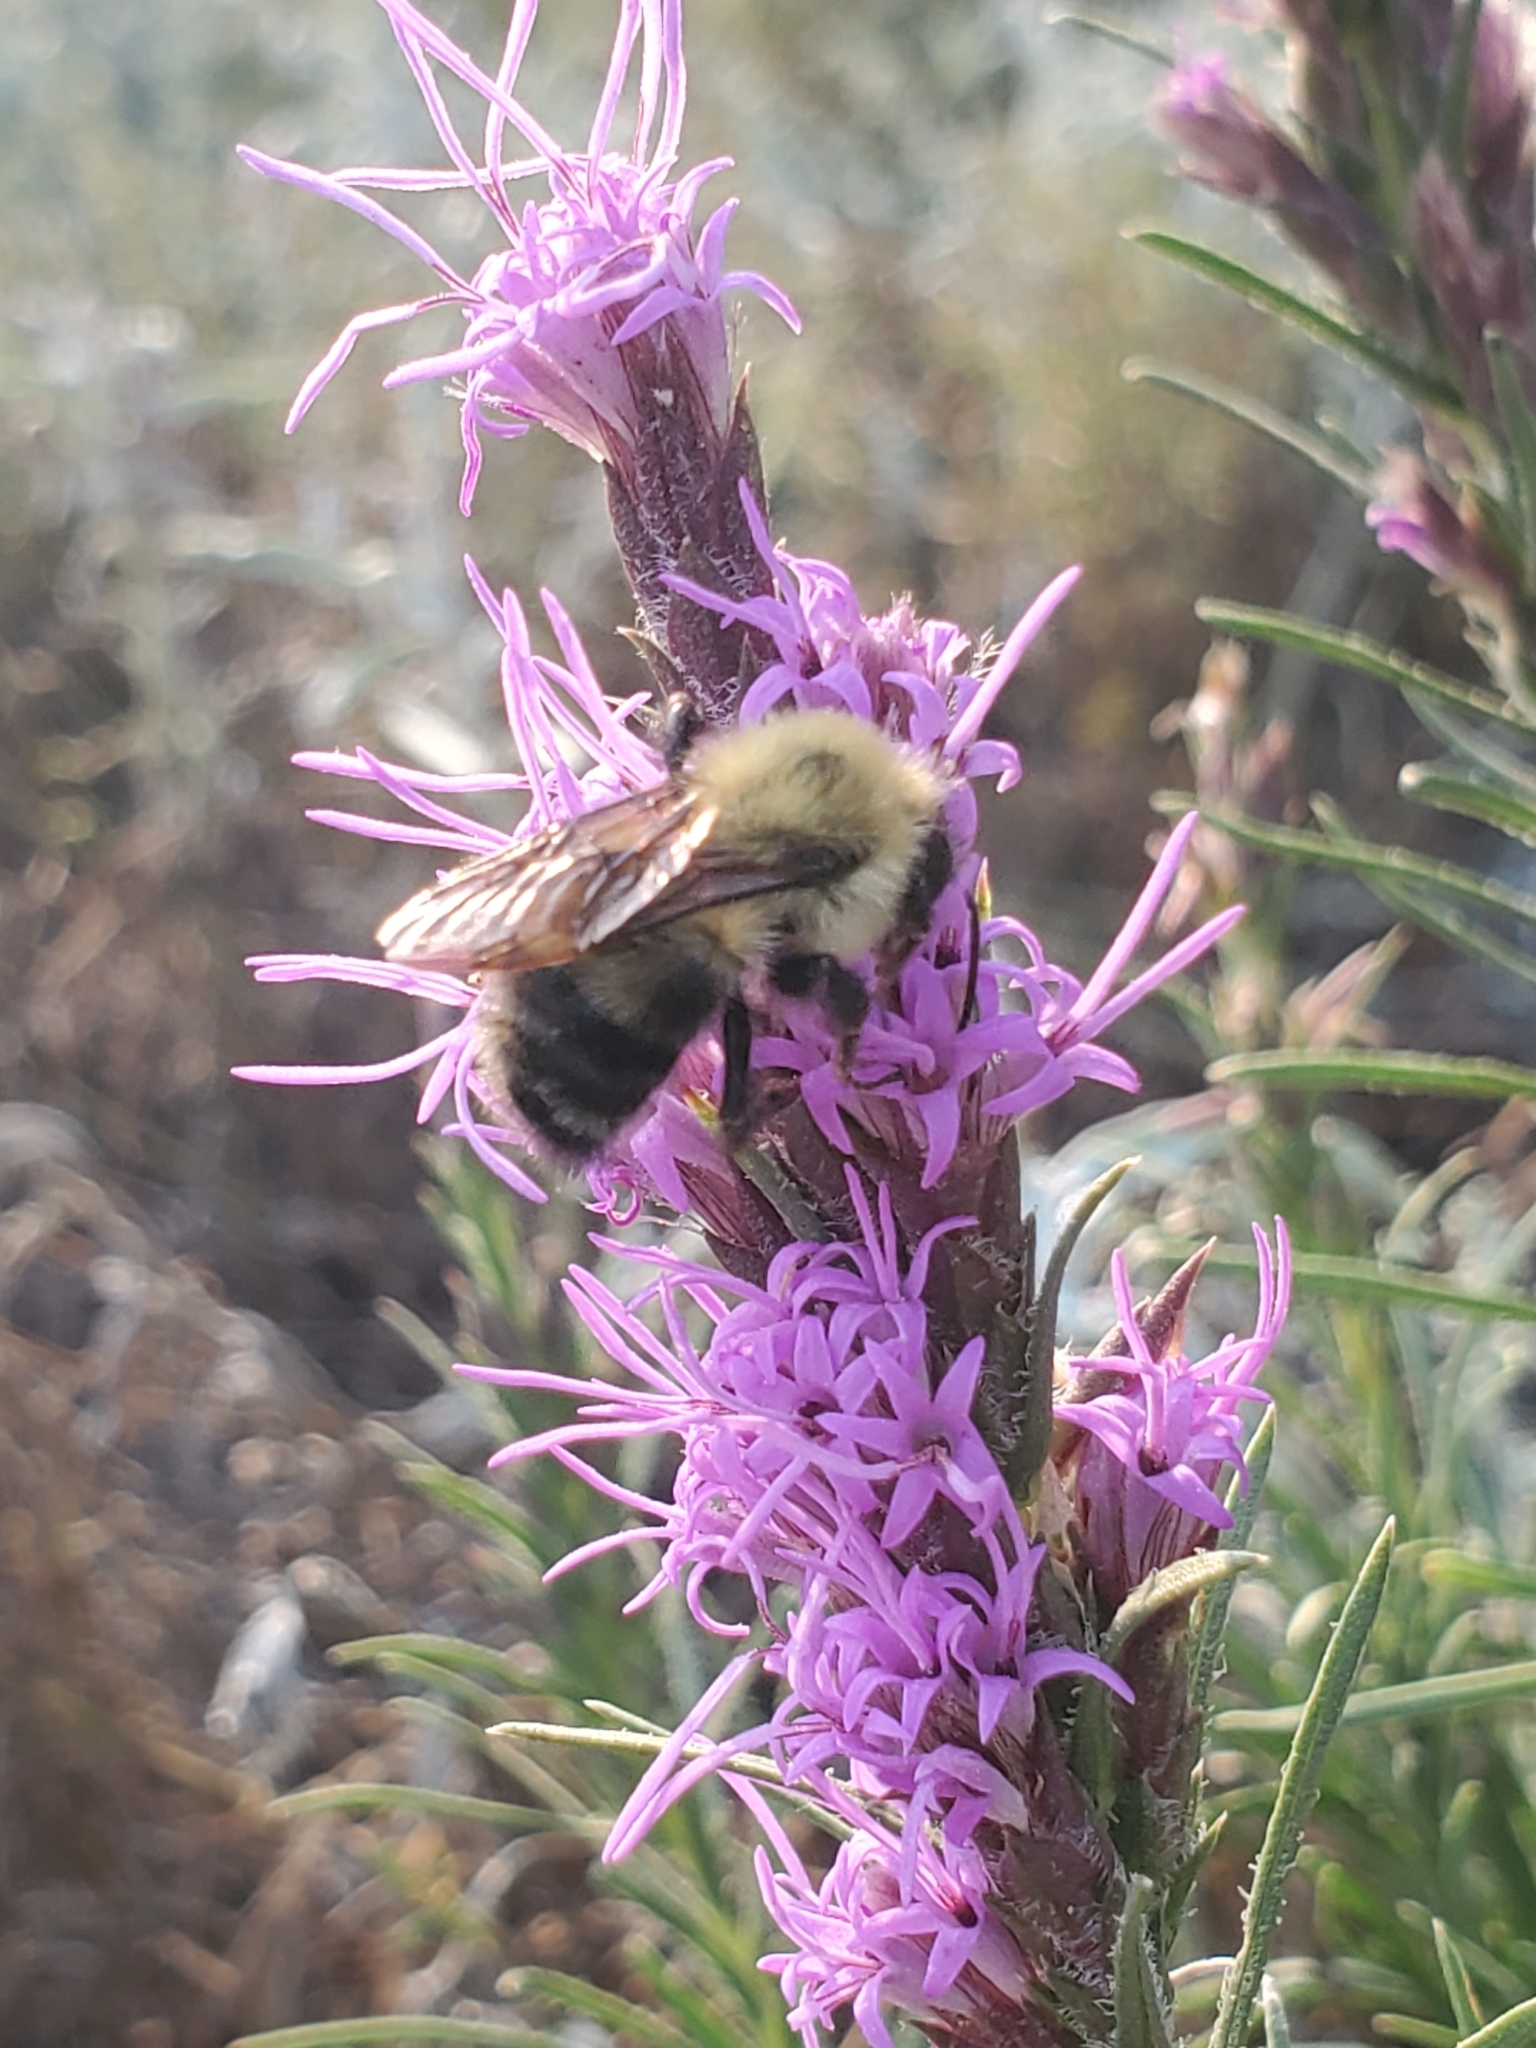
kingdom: Animalia
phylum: Arthropoda
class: Insecta
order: Hymenoptera
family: Apidae
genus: Bombus
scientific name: Bombus bimaculatus
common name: Two-spotted bumble bee
